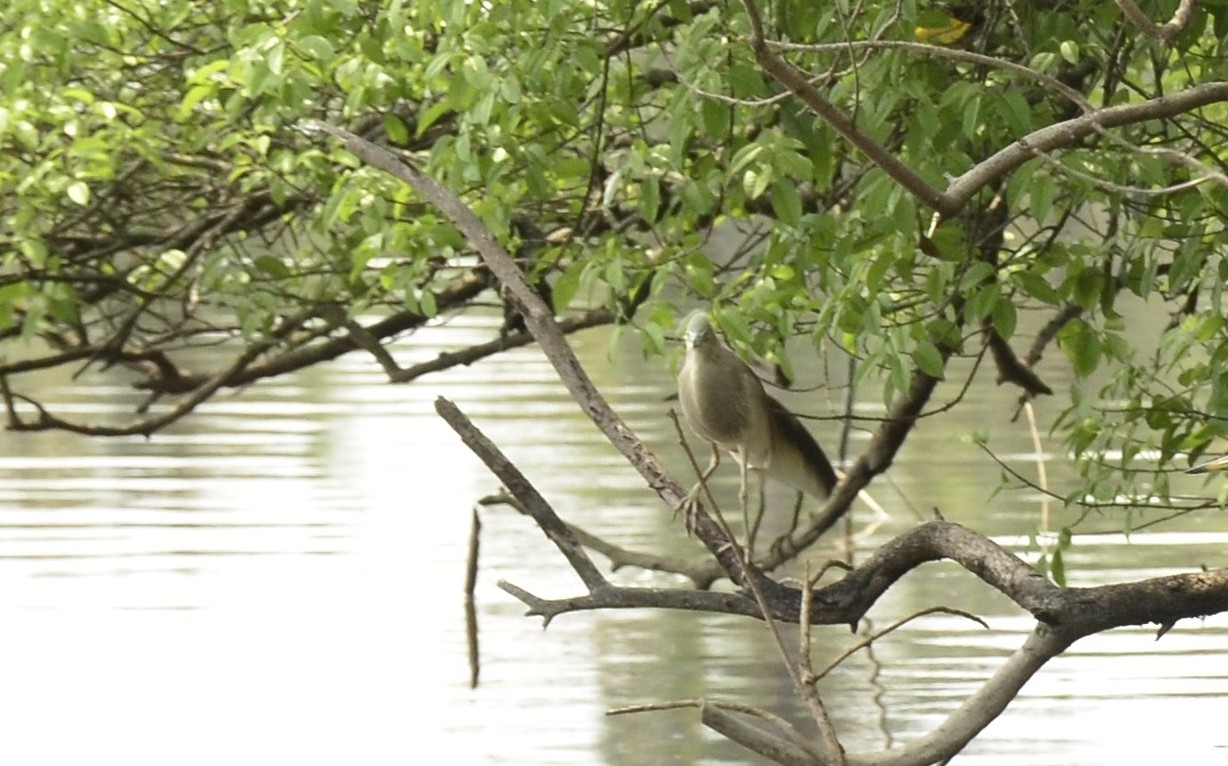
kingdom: Animalia
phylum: Chordata
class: Aves
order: Pelecaniformes
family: Ardeidae
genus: Ardeola
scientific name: Ardeola grayii
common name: Indian pond heron
